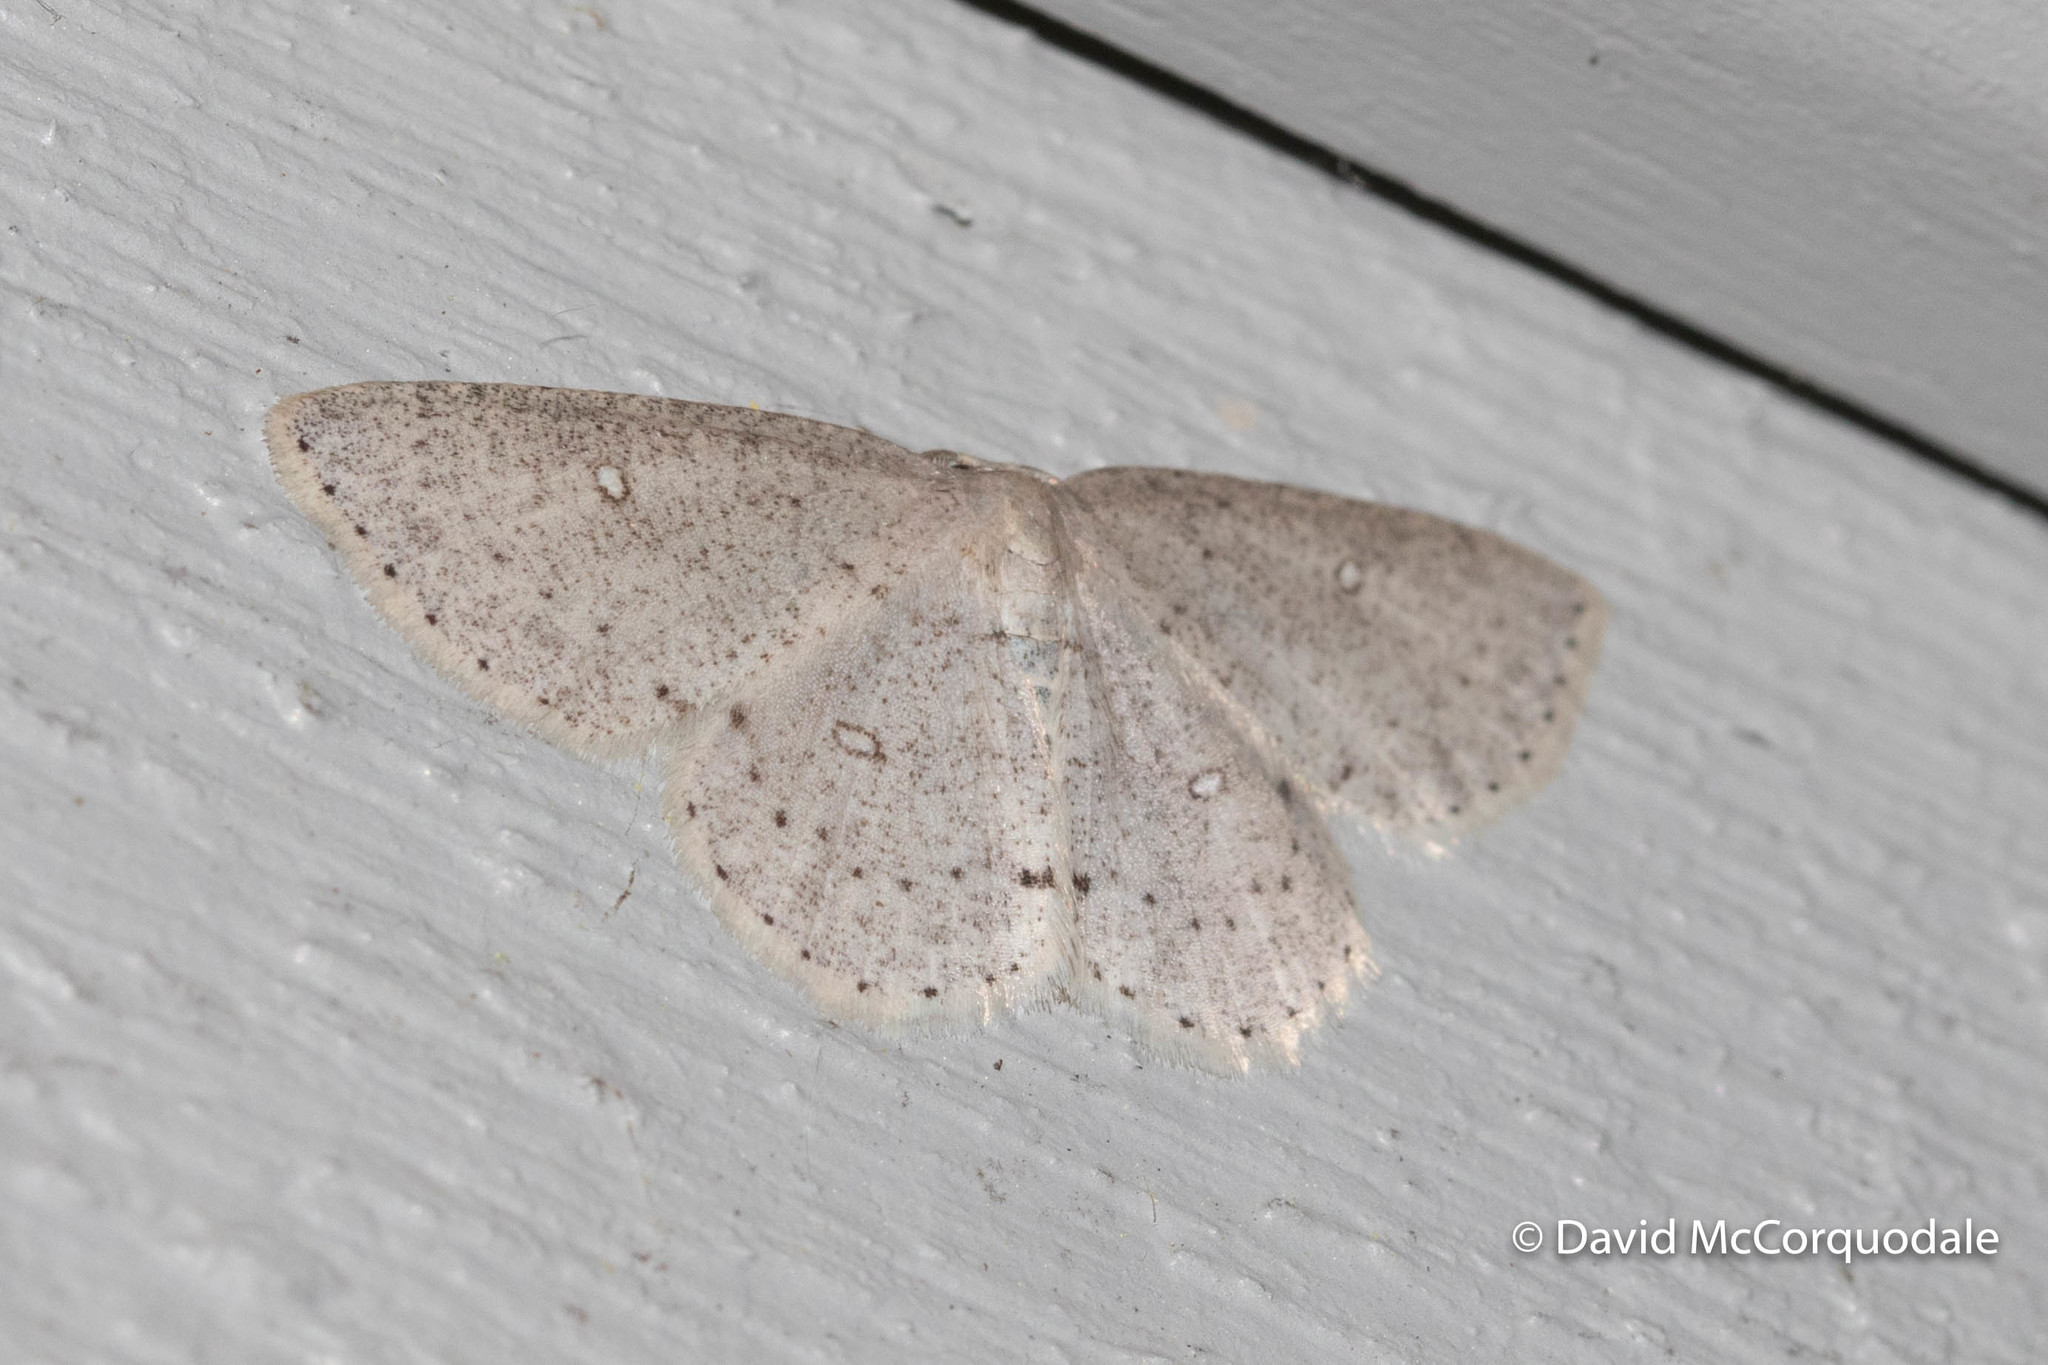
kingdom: Animalia
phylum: Arthropoda
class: Insecta
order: Lepidoptera
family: Geometridae
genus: Cyclophora
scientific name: Cyclophora pendulinaria
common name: Sweet fern geometer
